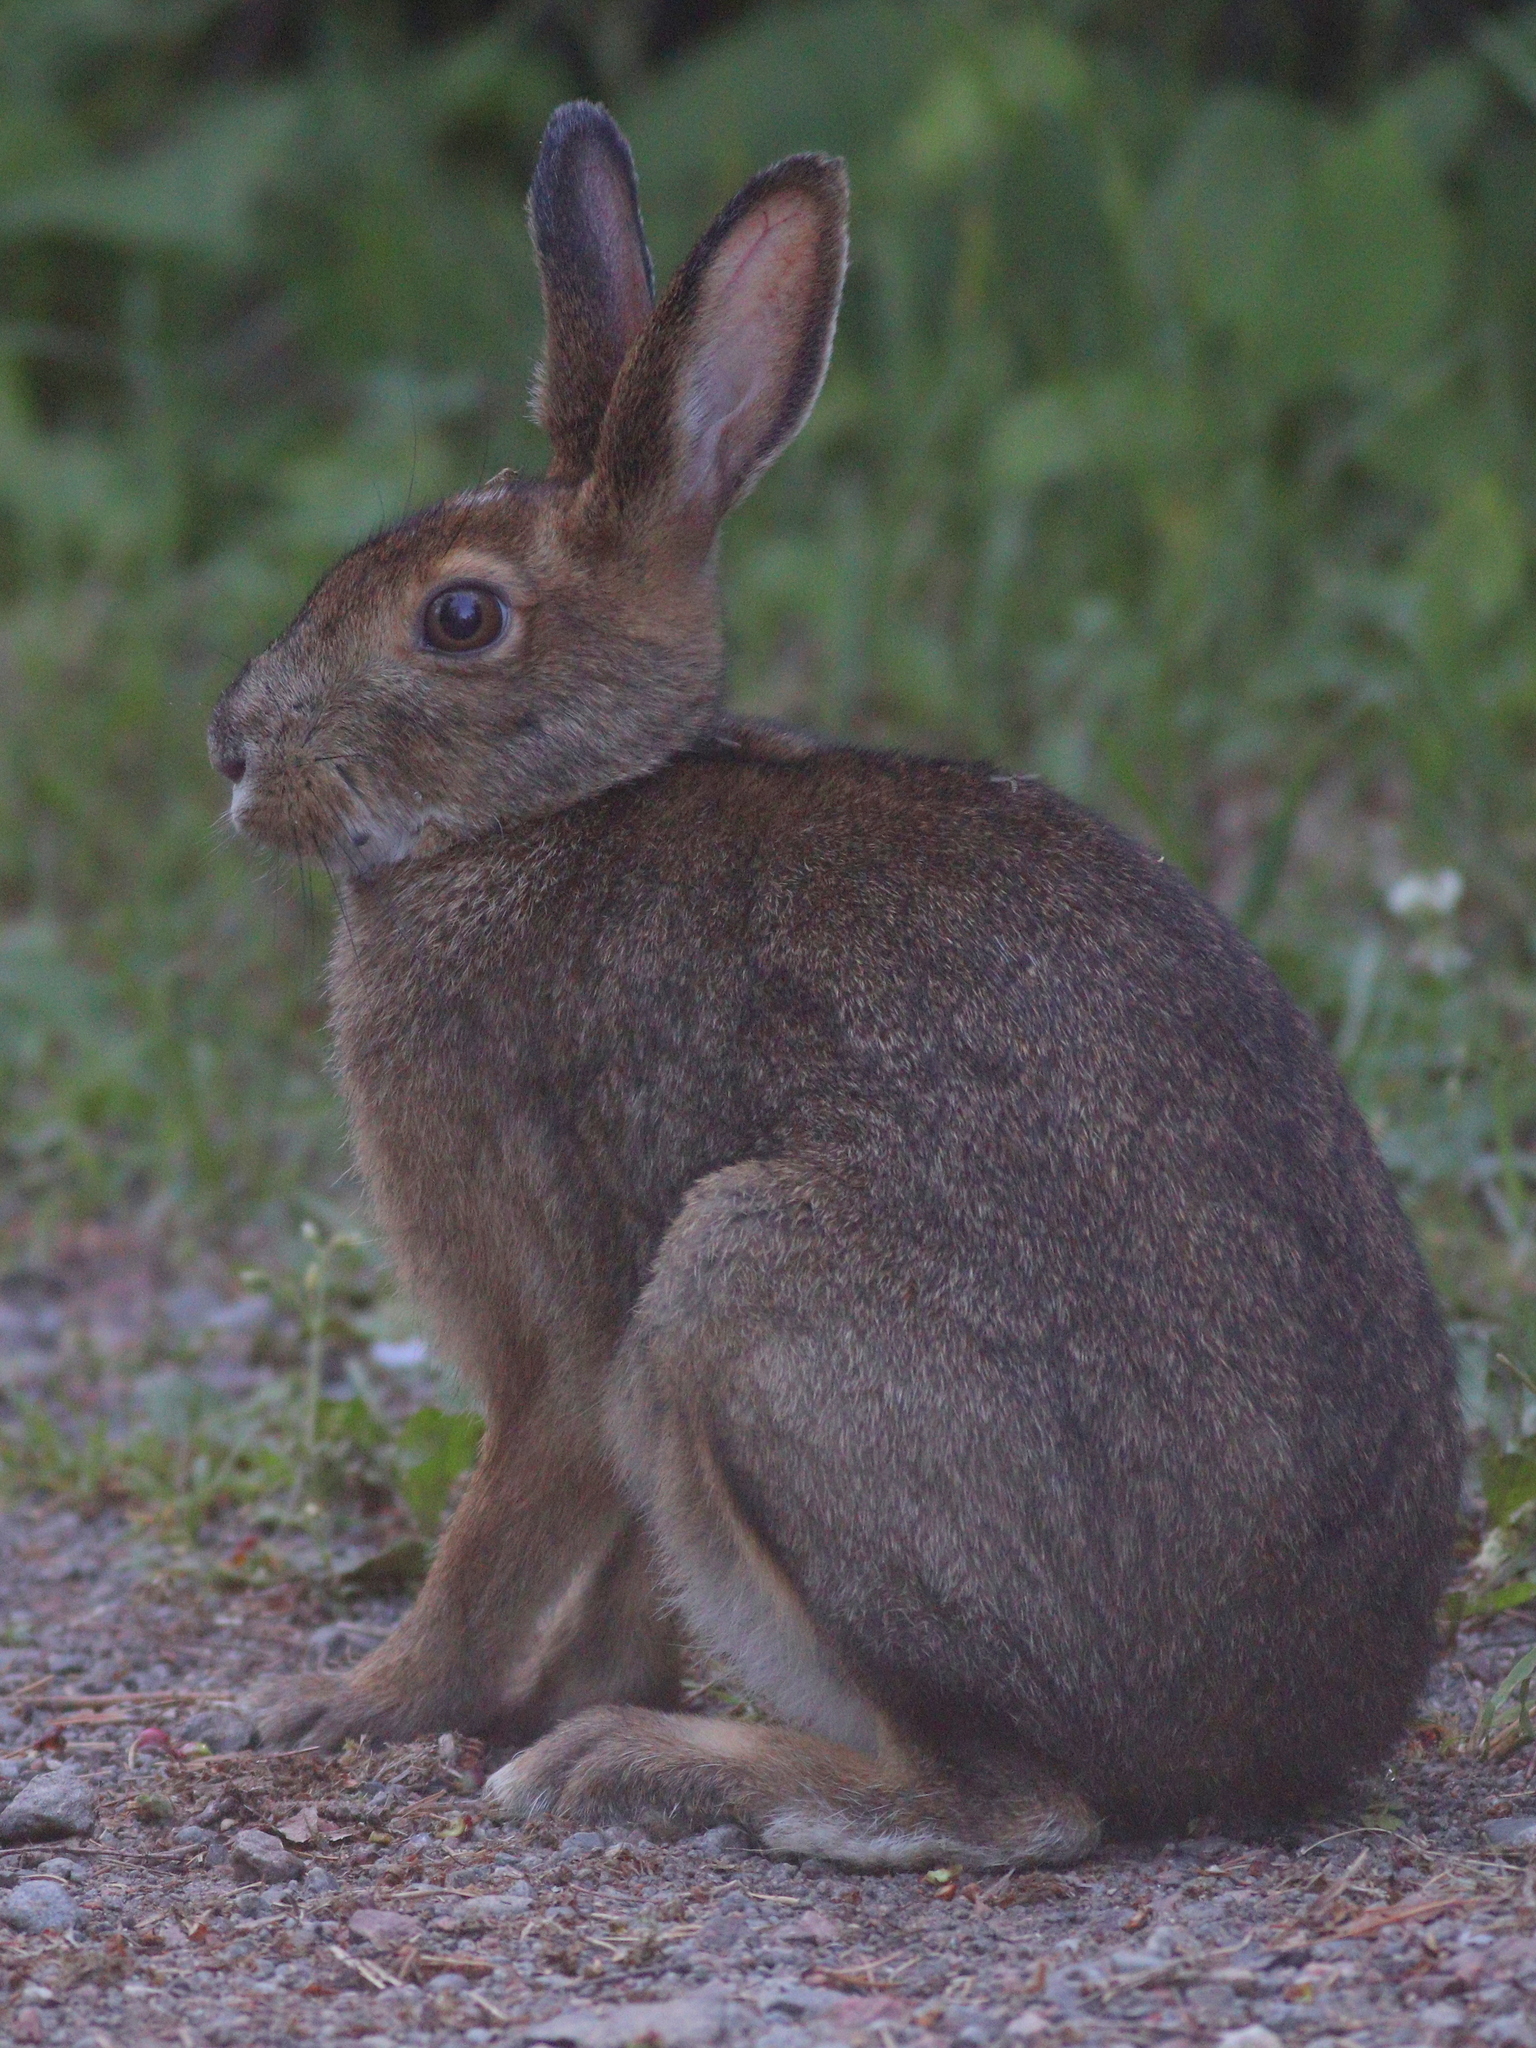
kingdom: Animalia
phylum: Chordata
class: Mammalia
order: Lagomorpha
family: Leporidae
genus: Lepus
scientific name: Lepus americanus
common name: Snowshoe hare
